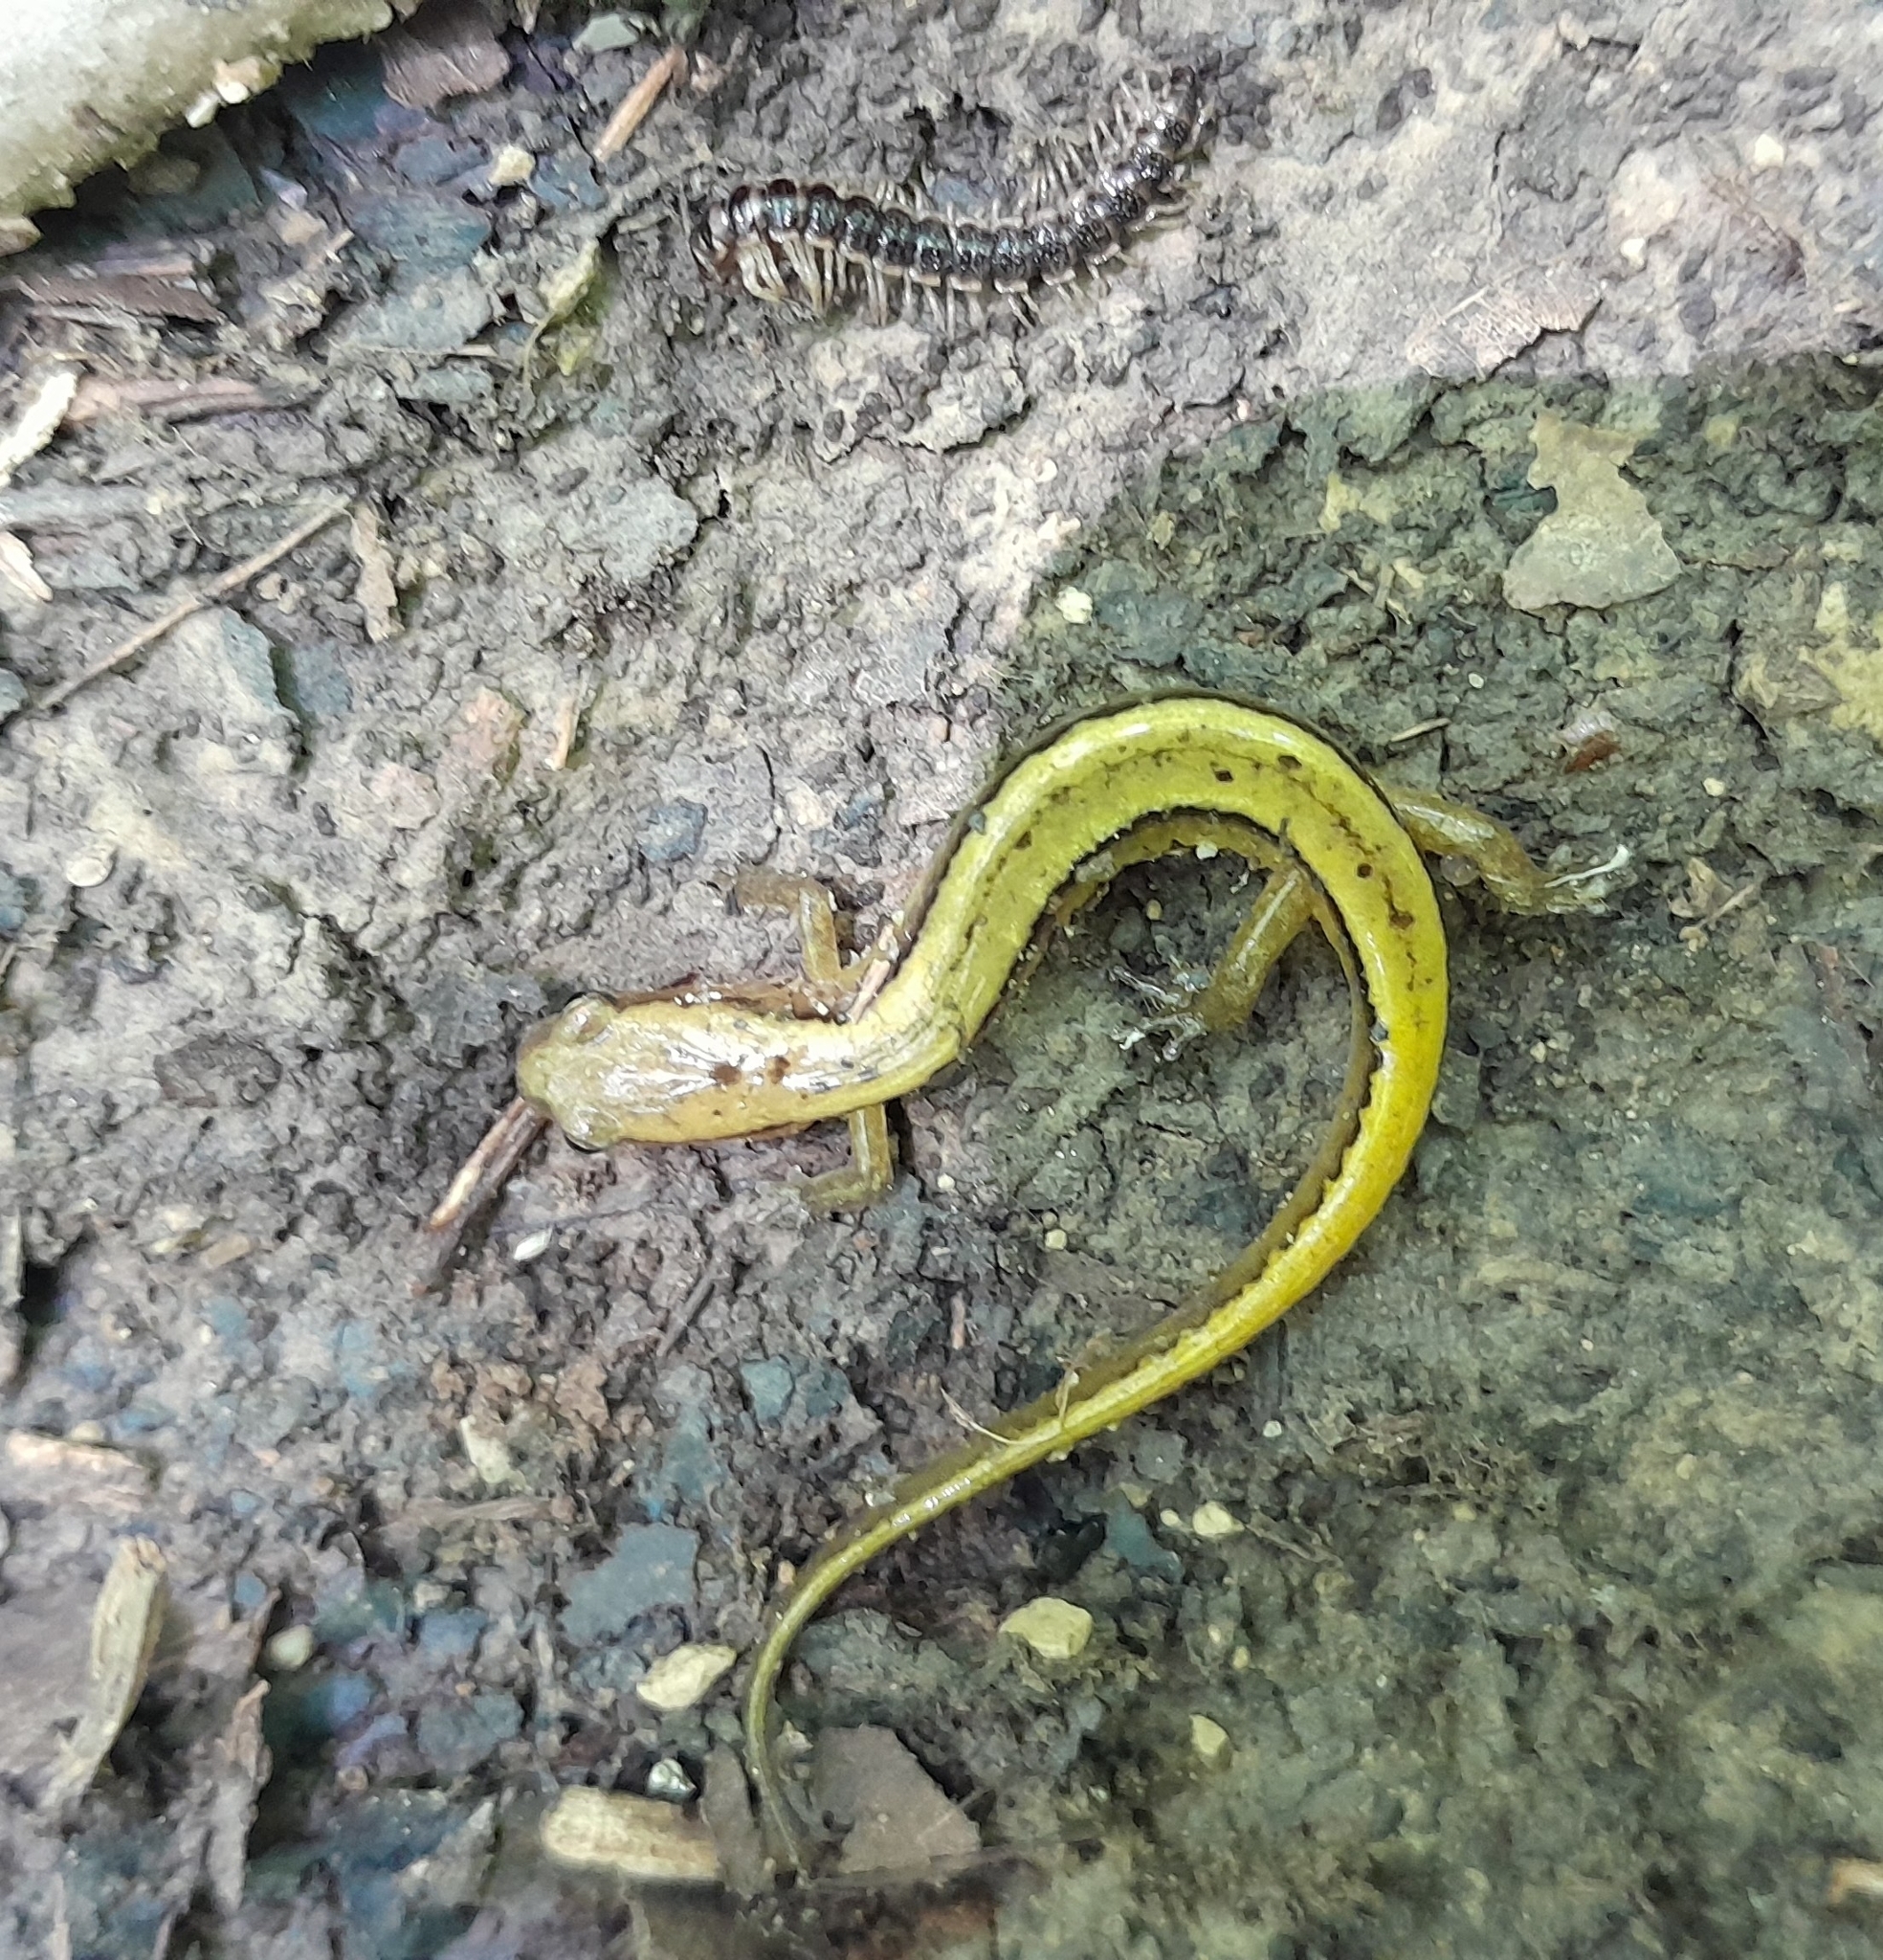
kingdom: Animalia
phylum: Chordata
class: Amphibia
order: Caudata
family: Plethodontidae
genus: Eurycea
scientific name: Eurycea cirrigera
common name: Southern two-lined salamander
